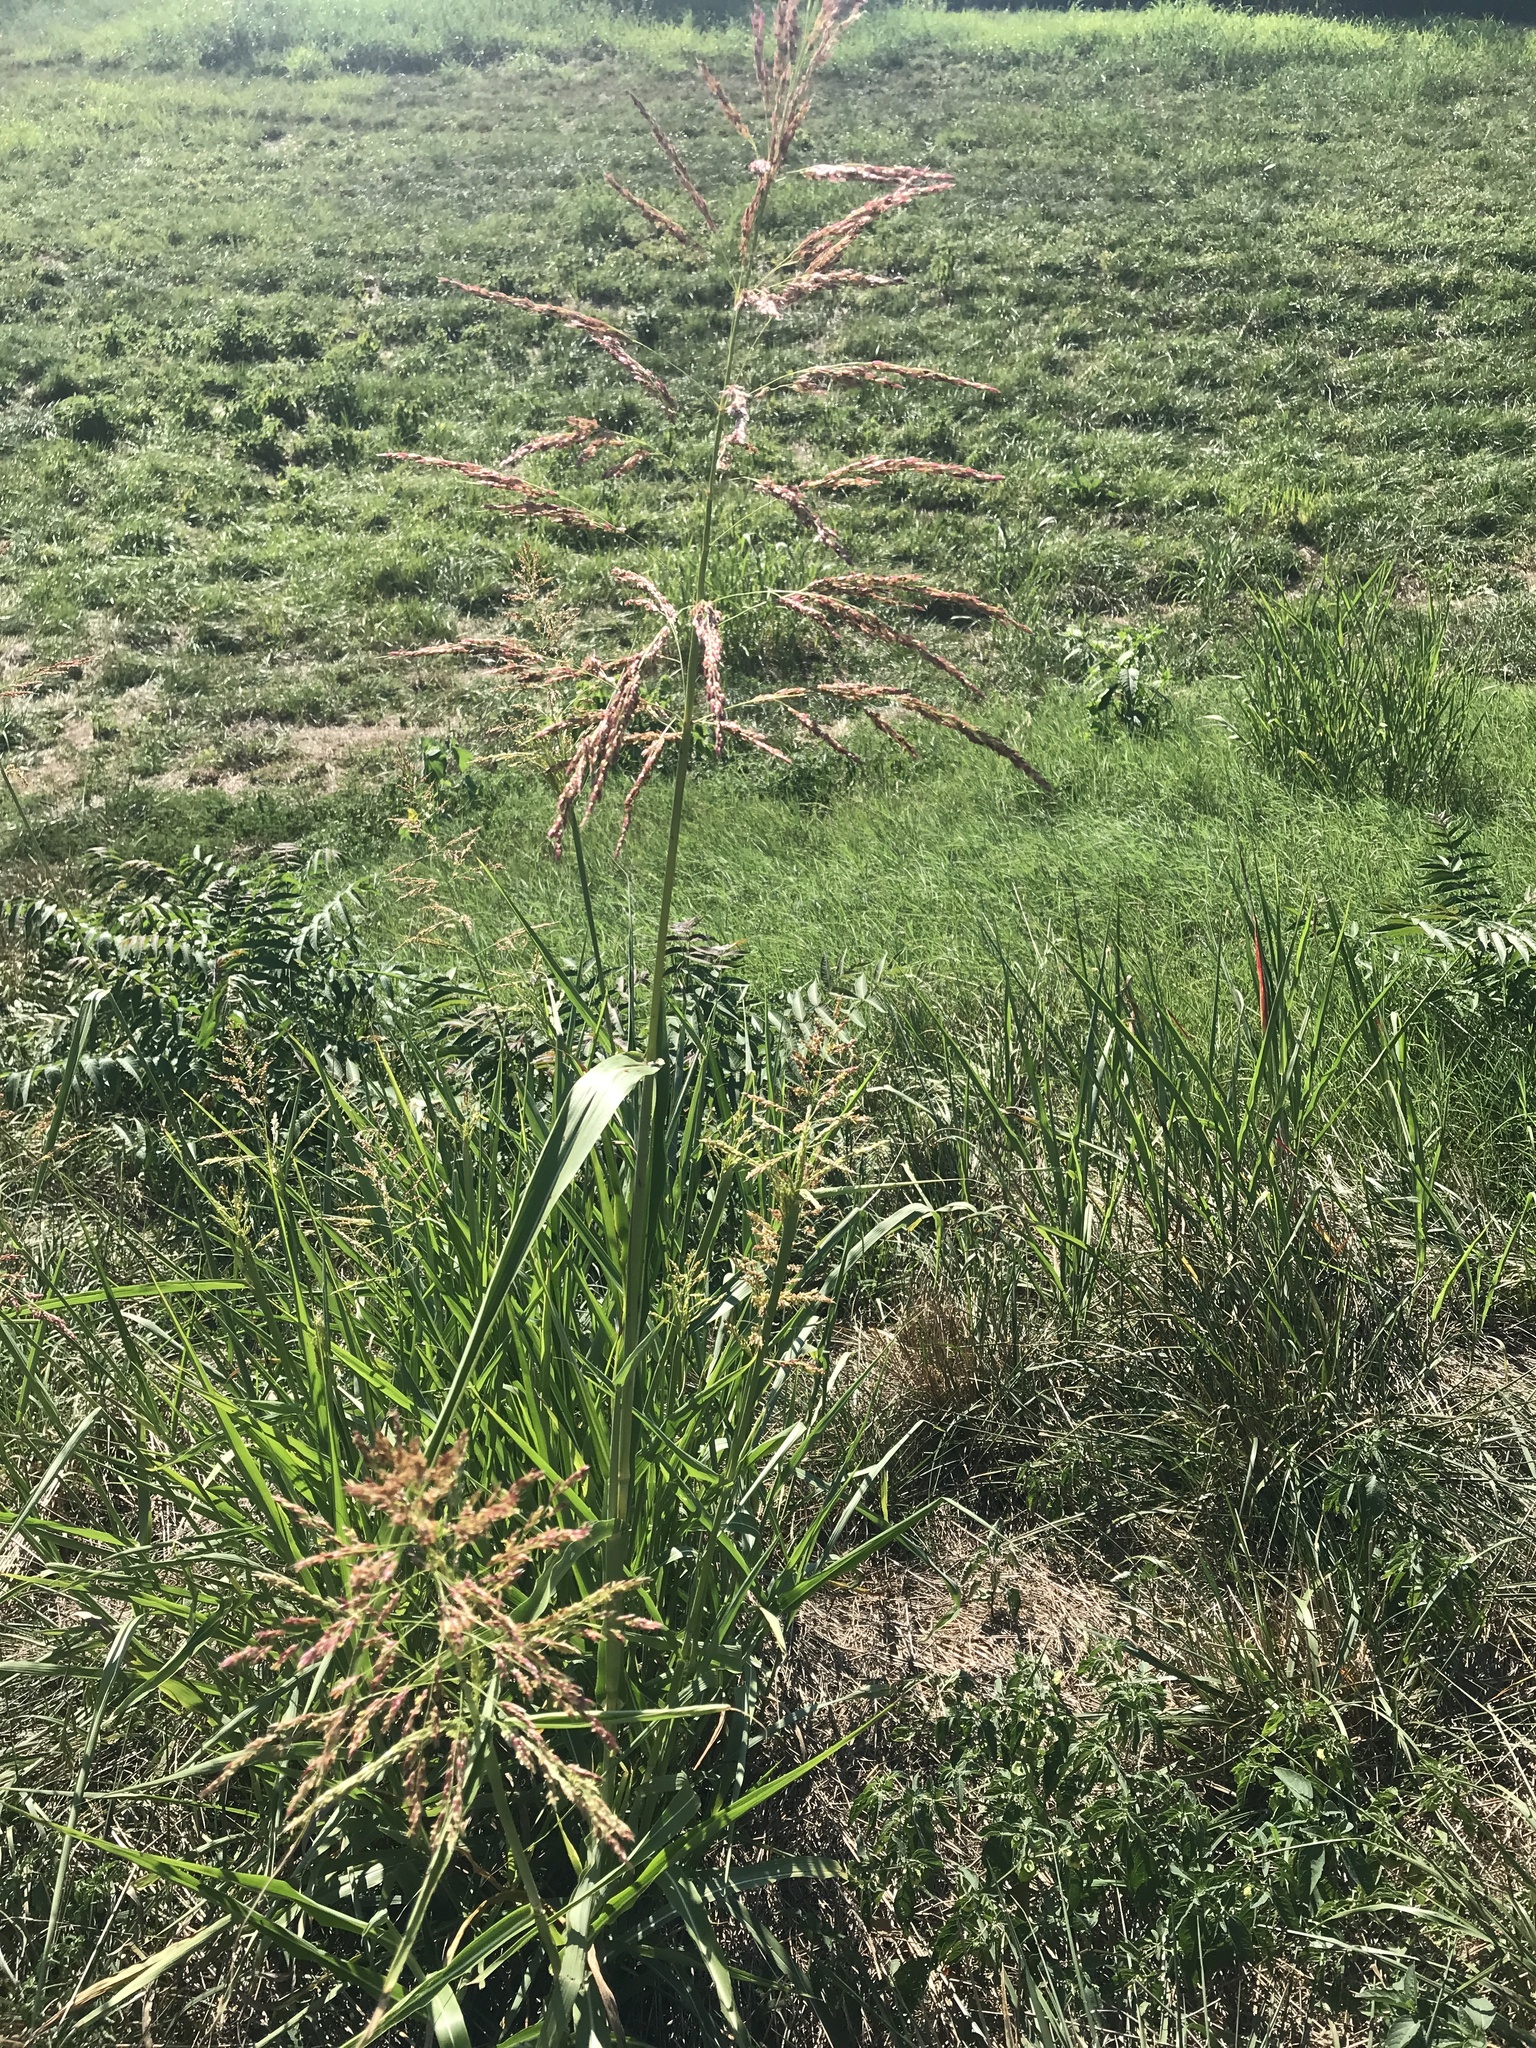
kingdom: Plantae
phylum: Tracheophyta
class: Liliopsida
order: Poales
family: Poaceae
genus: Sorghum
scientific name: Sorghum halepense
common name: Johnson-grass
